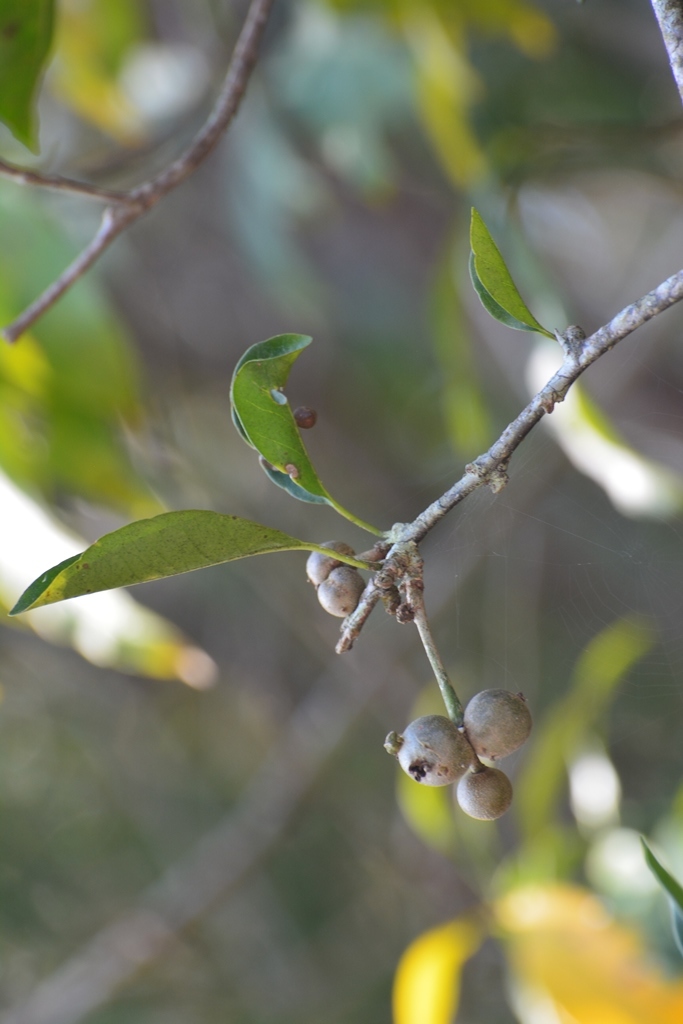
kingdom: Plantae
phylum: Tracheophyta
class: Magnoliopsida
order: Caryophyllales
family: Nyctaginaceae
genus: Pisonia
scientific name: Pisonia donnellsmithii
